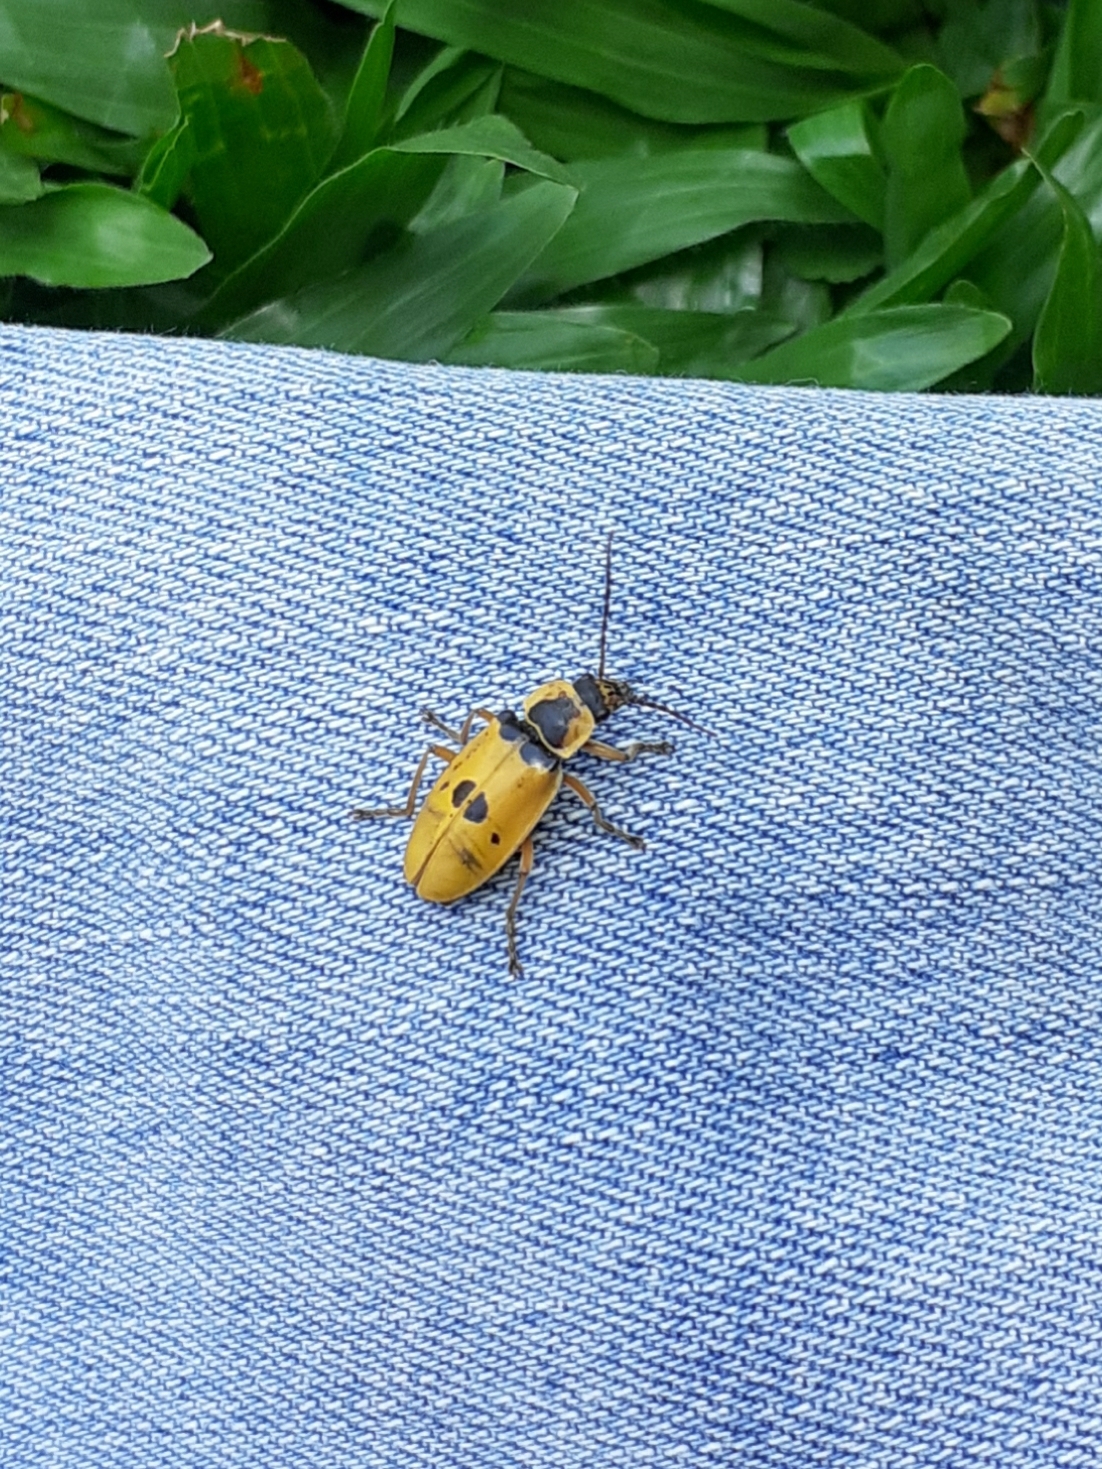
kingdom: Animalia
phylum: Arthropoda
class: Insecta
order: Coleoptera
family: Cantharidae
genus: Chauliognathus
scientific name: Chauliognathus
